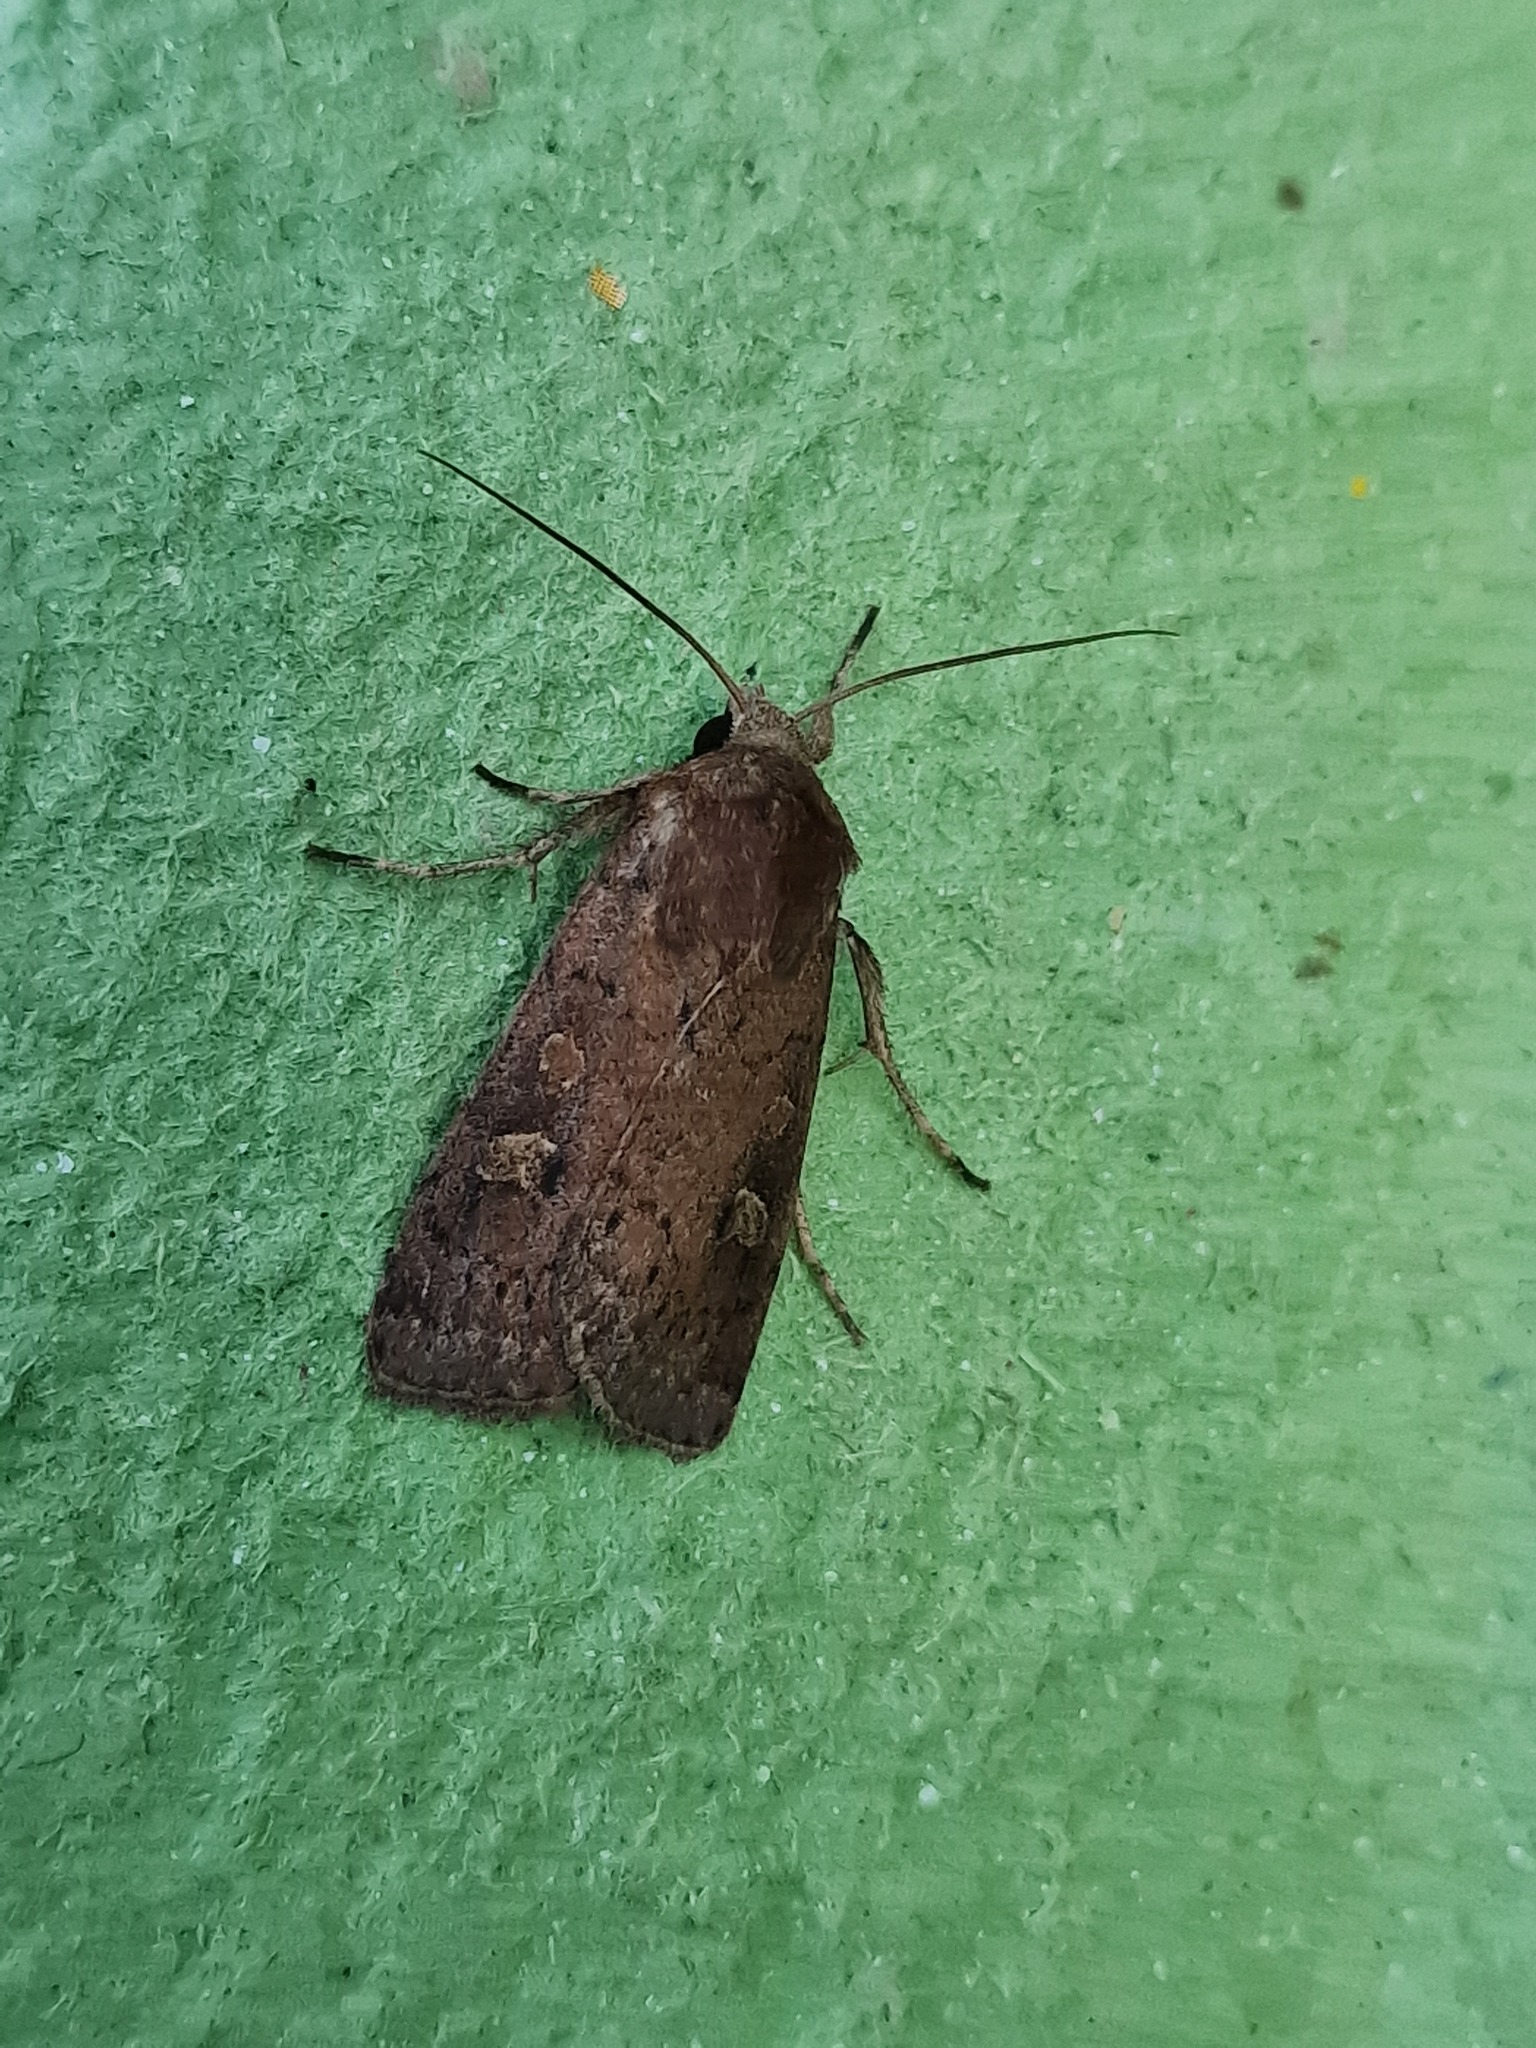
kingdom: Animalia
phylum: Arthropoda
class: Insecta
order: Lepidoptera
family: Noctuidae
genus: Xestia
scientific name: Xestia xanthographa
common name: Square-spot rustic
